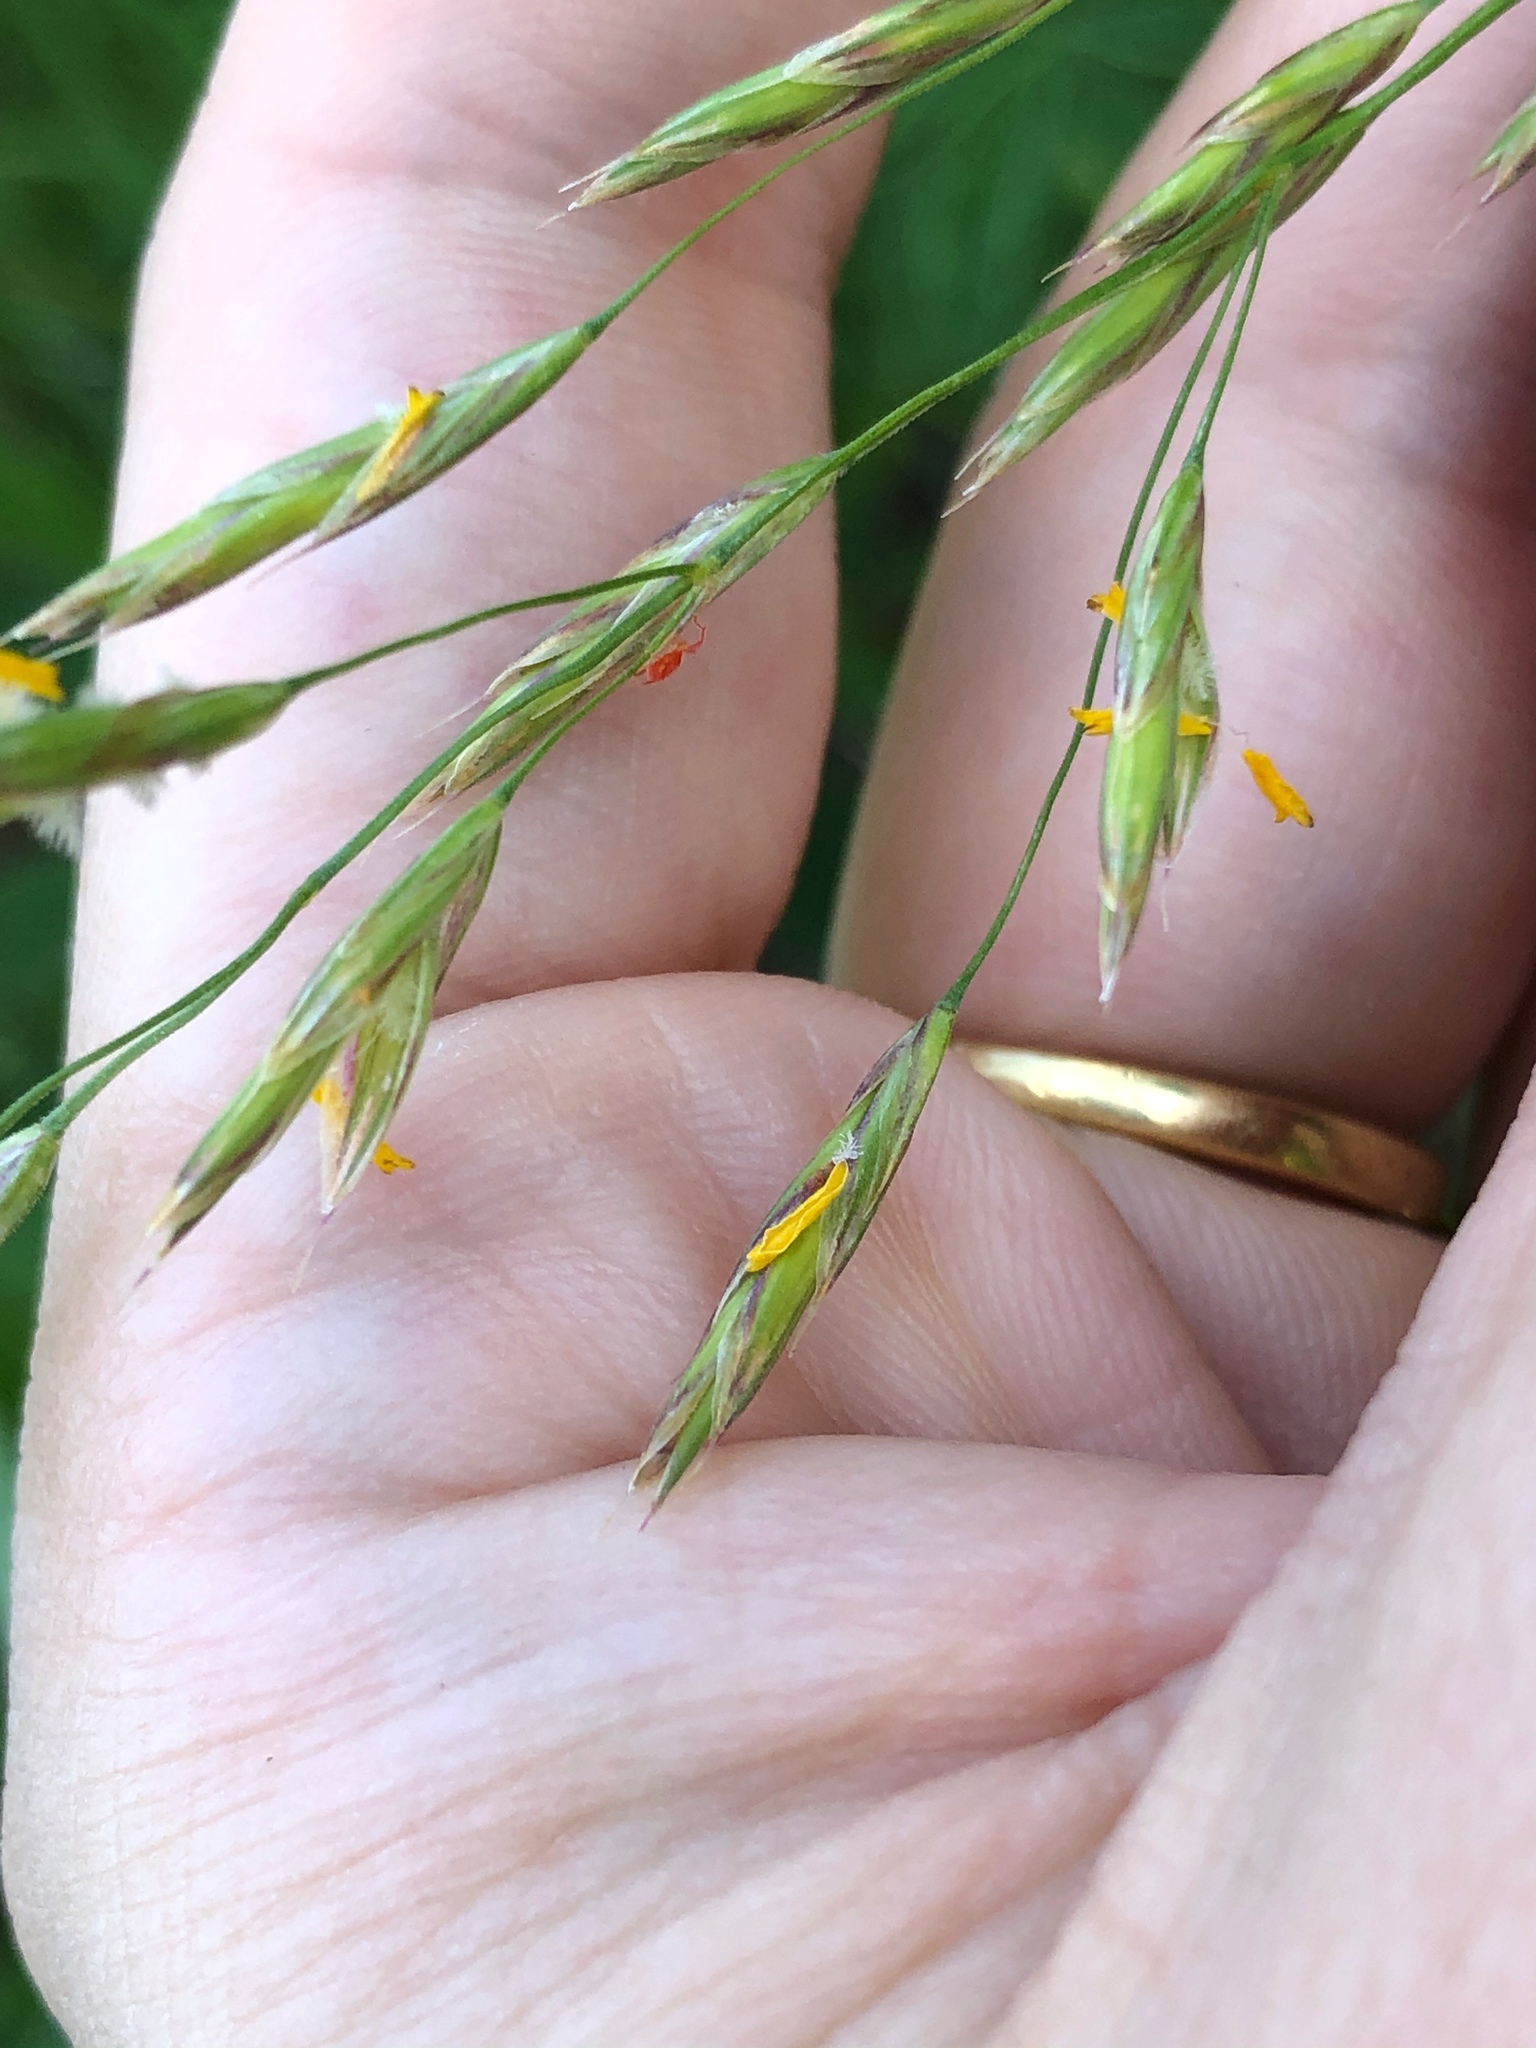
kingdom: Plantae
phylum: Tracheophyta
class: Liliopsida
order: Poales
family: Poaceae
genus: Bromus
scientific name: Bromus inermis
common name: Smooth brome
